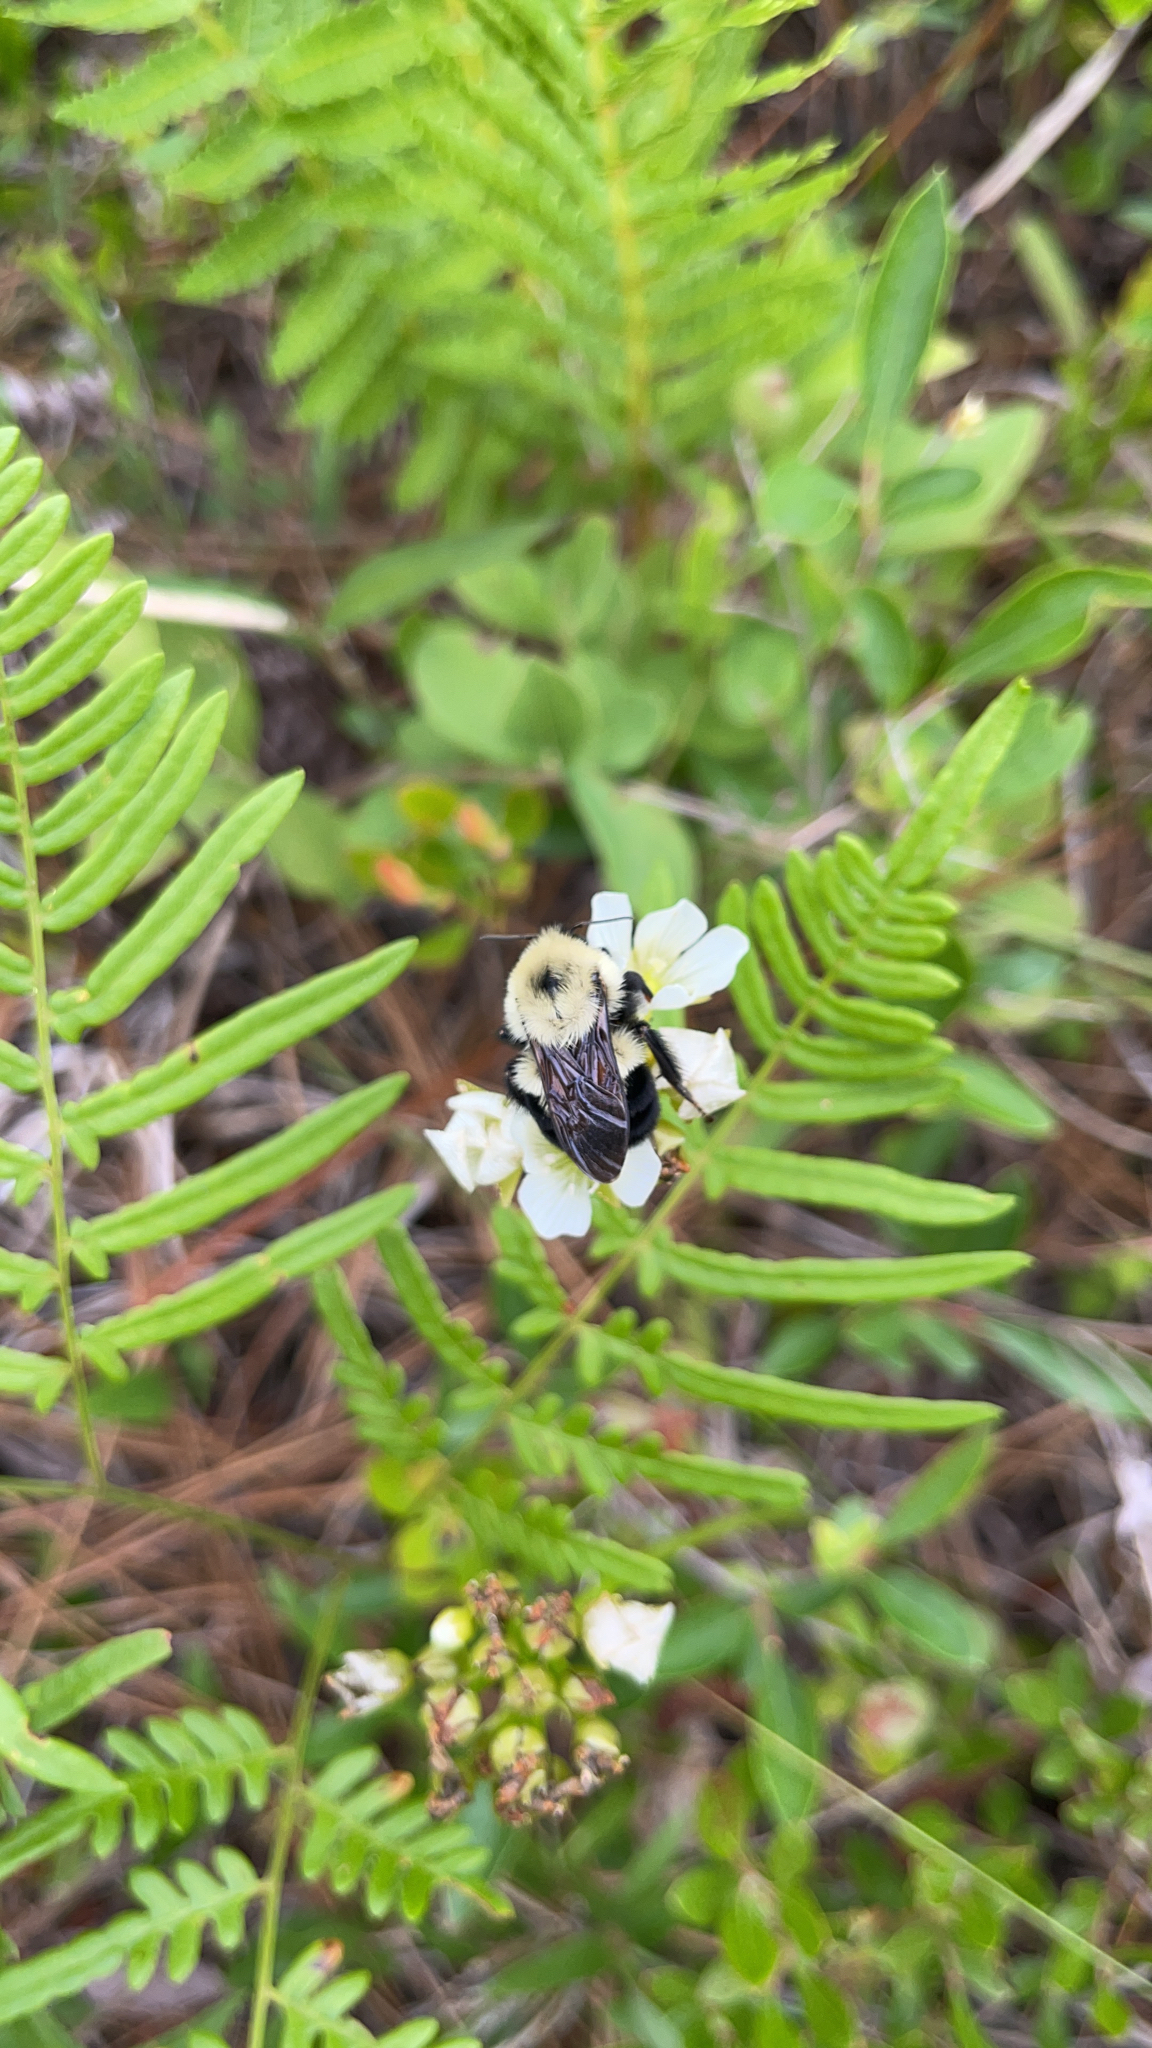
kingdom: Animalia
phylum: Arthropoda
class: Insecta
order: Hymenoptera
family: Apidae
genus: Bombus
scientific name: Bombus bimaculatus
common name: Two-spotted bumble bee
